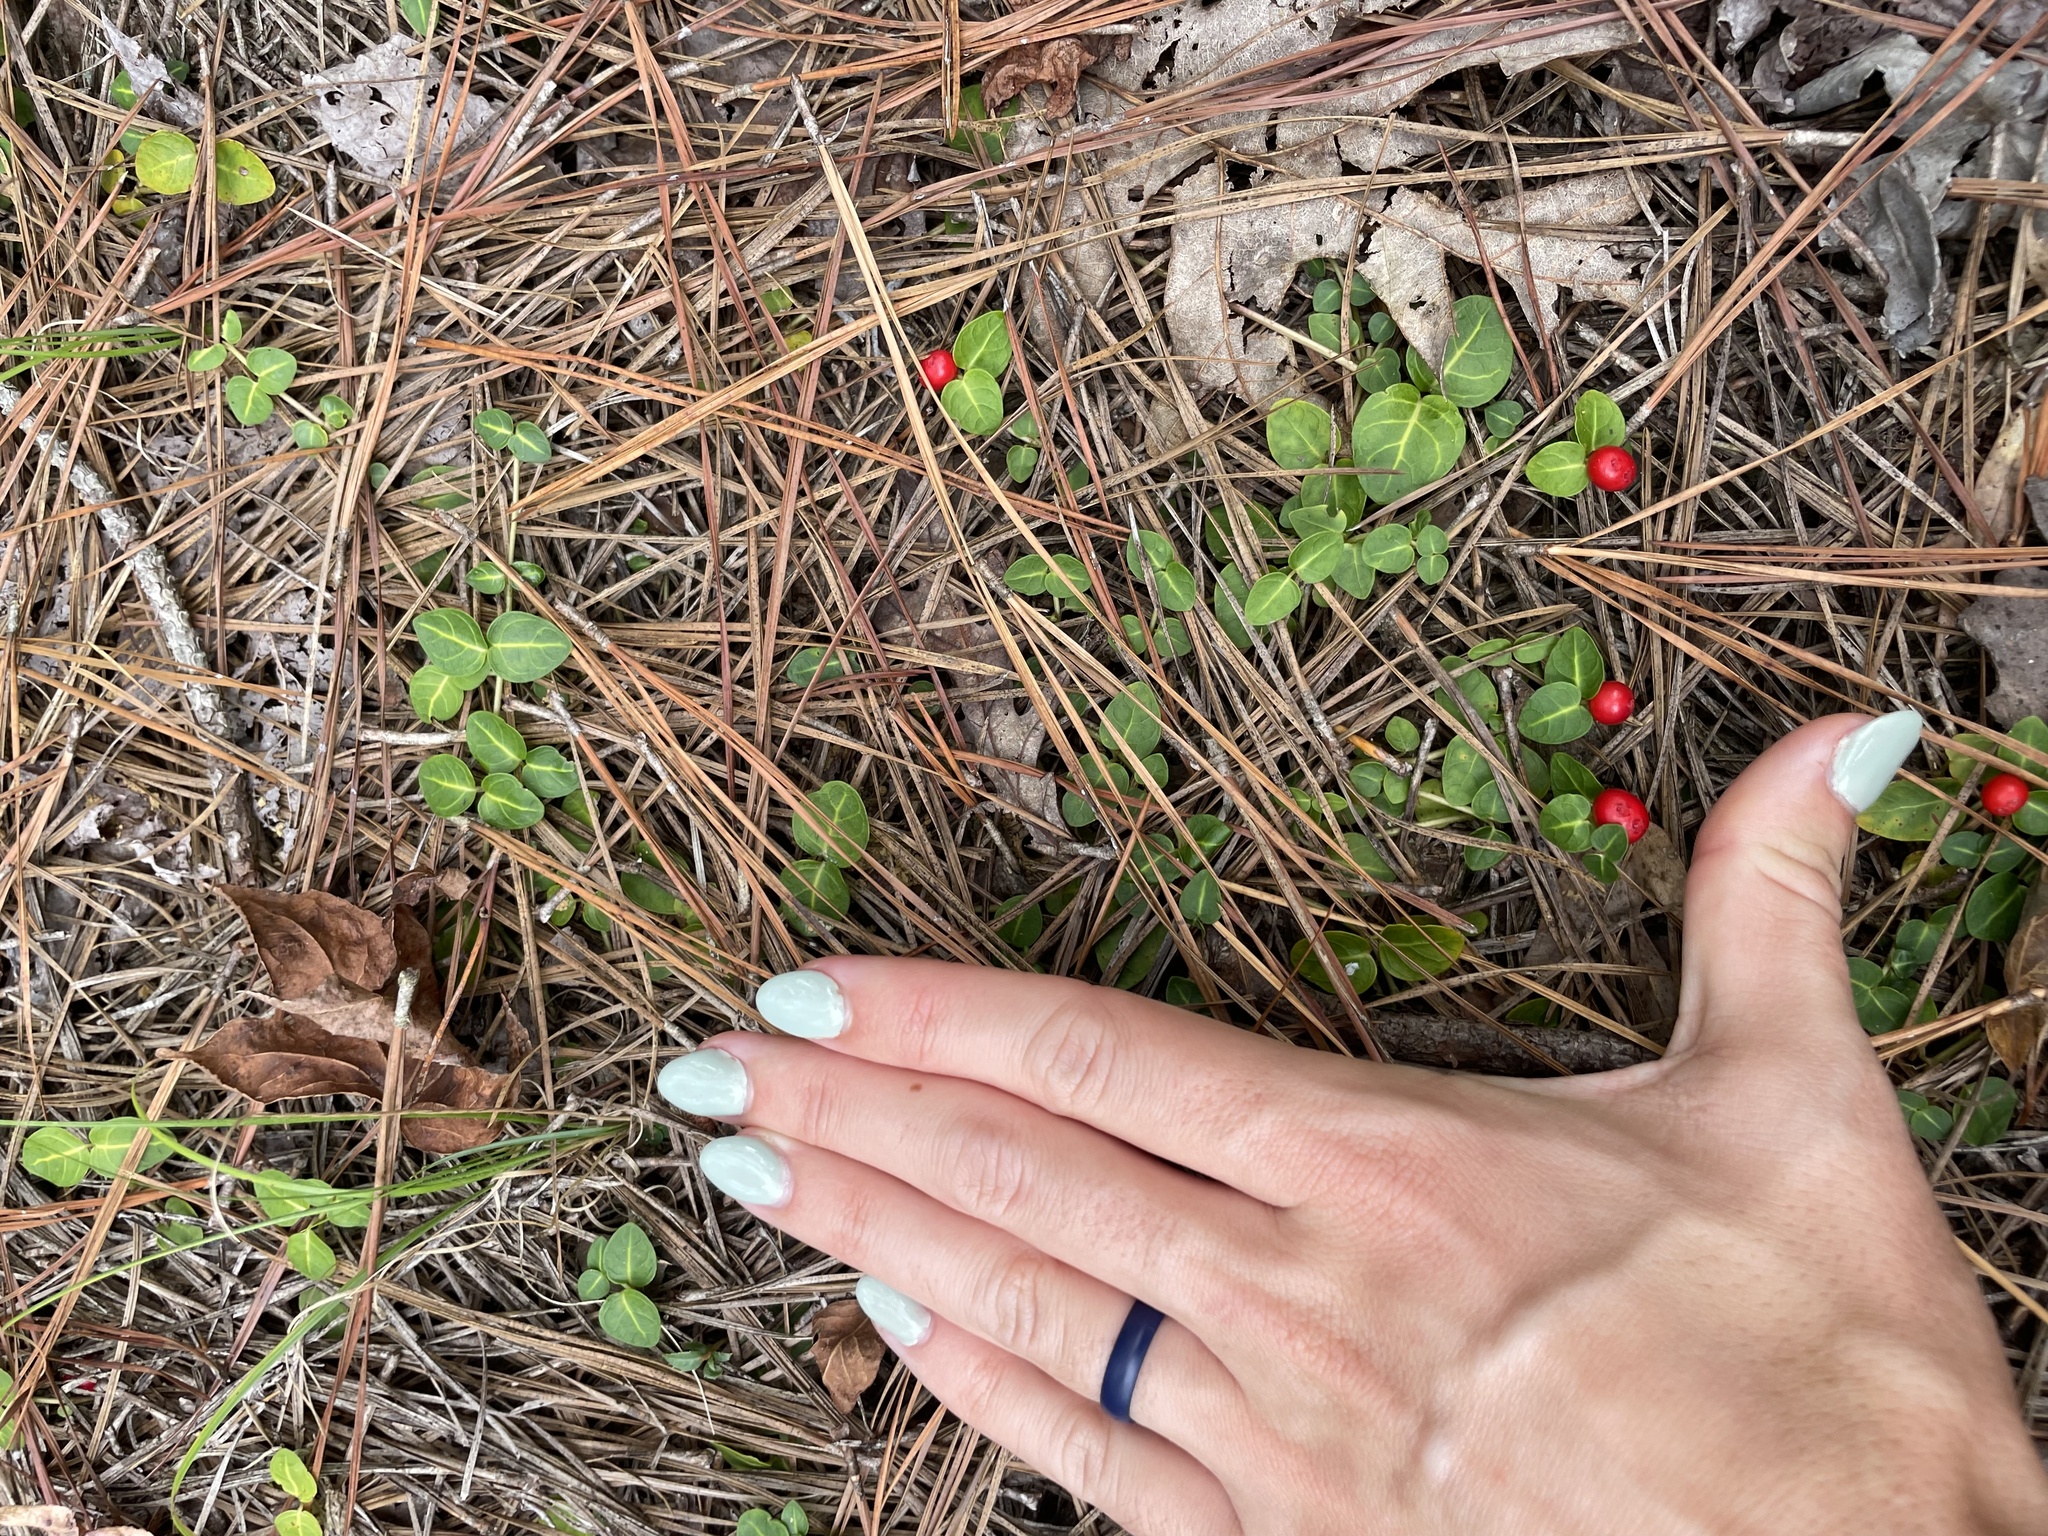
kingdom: Plantae
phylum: Tracheophyta
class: Magnoliopsida
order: Gentianales
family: Rubiaceae
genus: Mitchella
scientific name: Mitchella repens
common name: Partridge-berry
